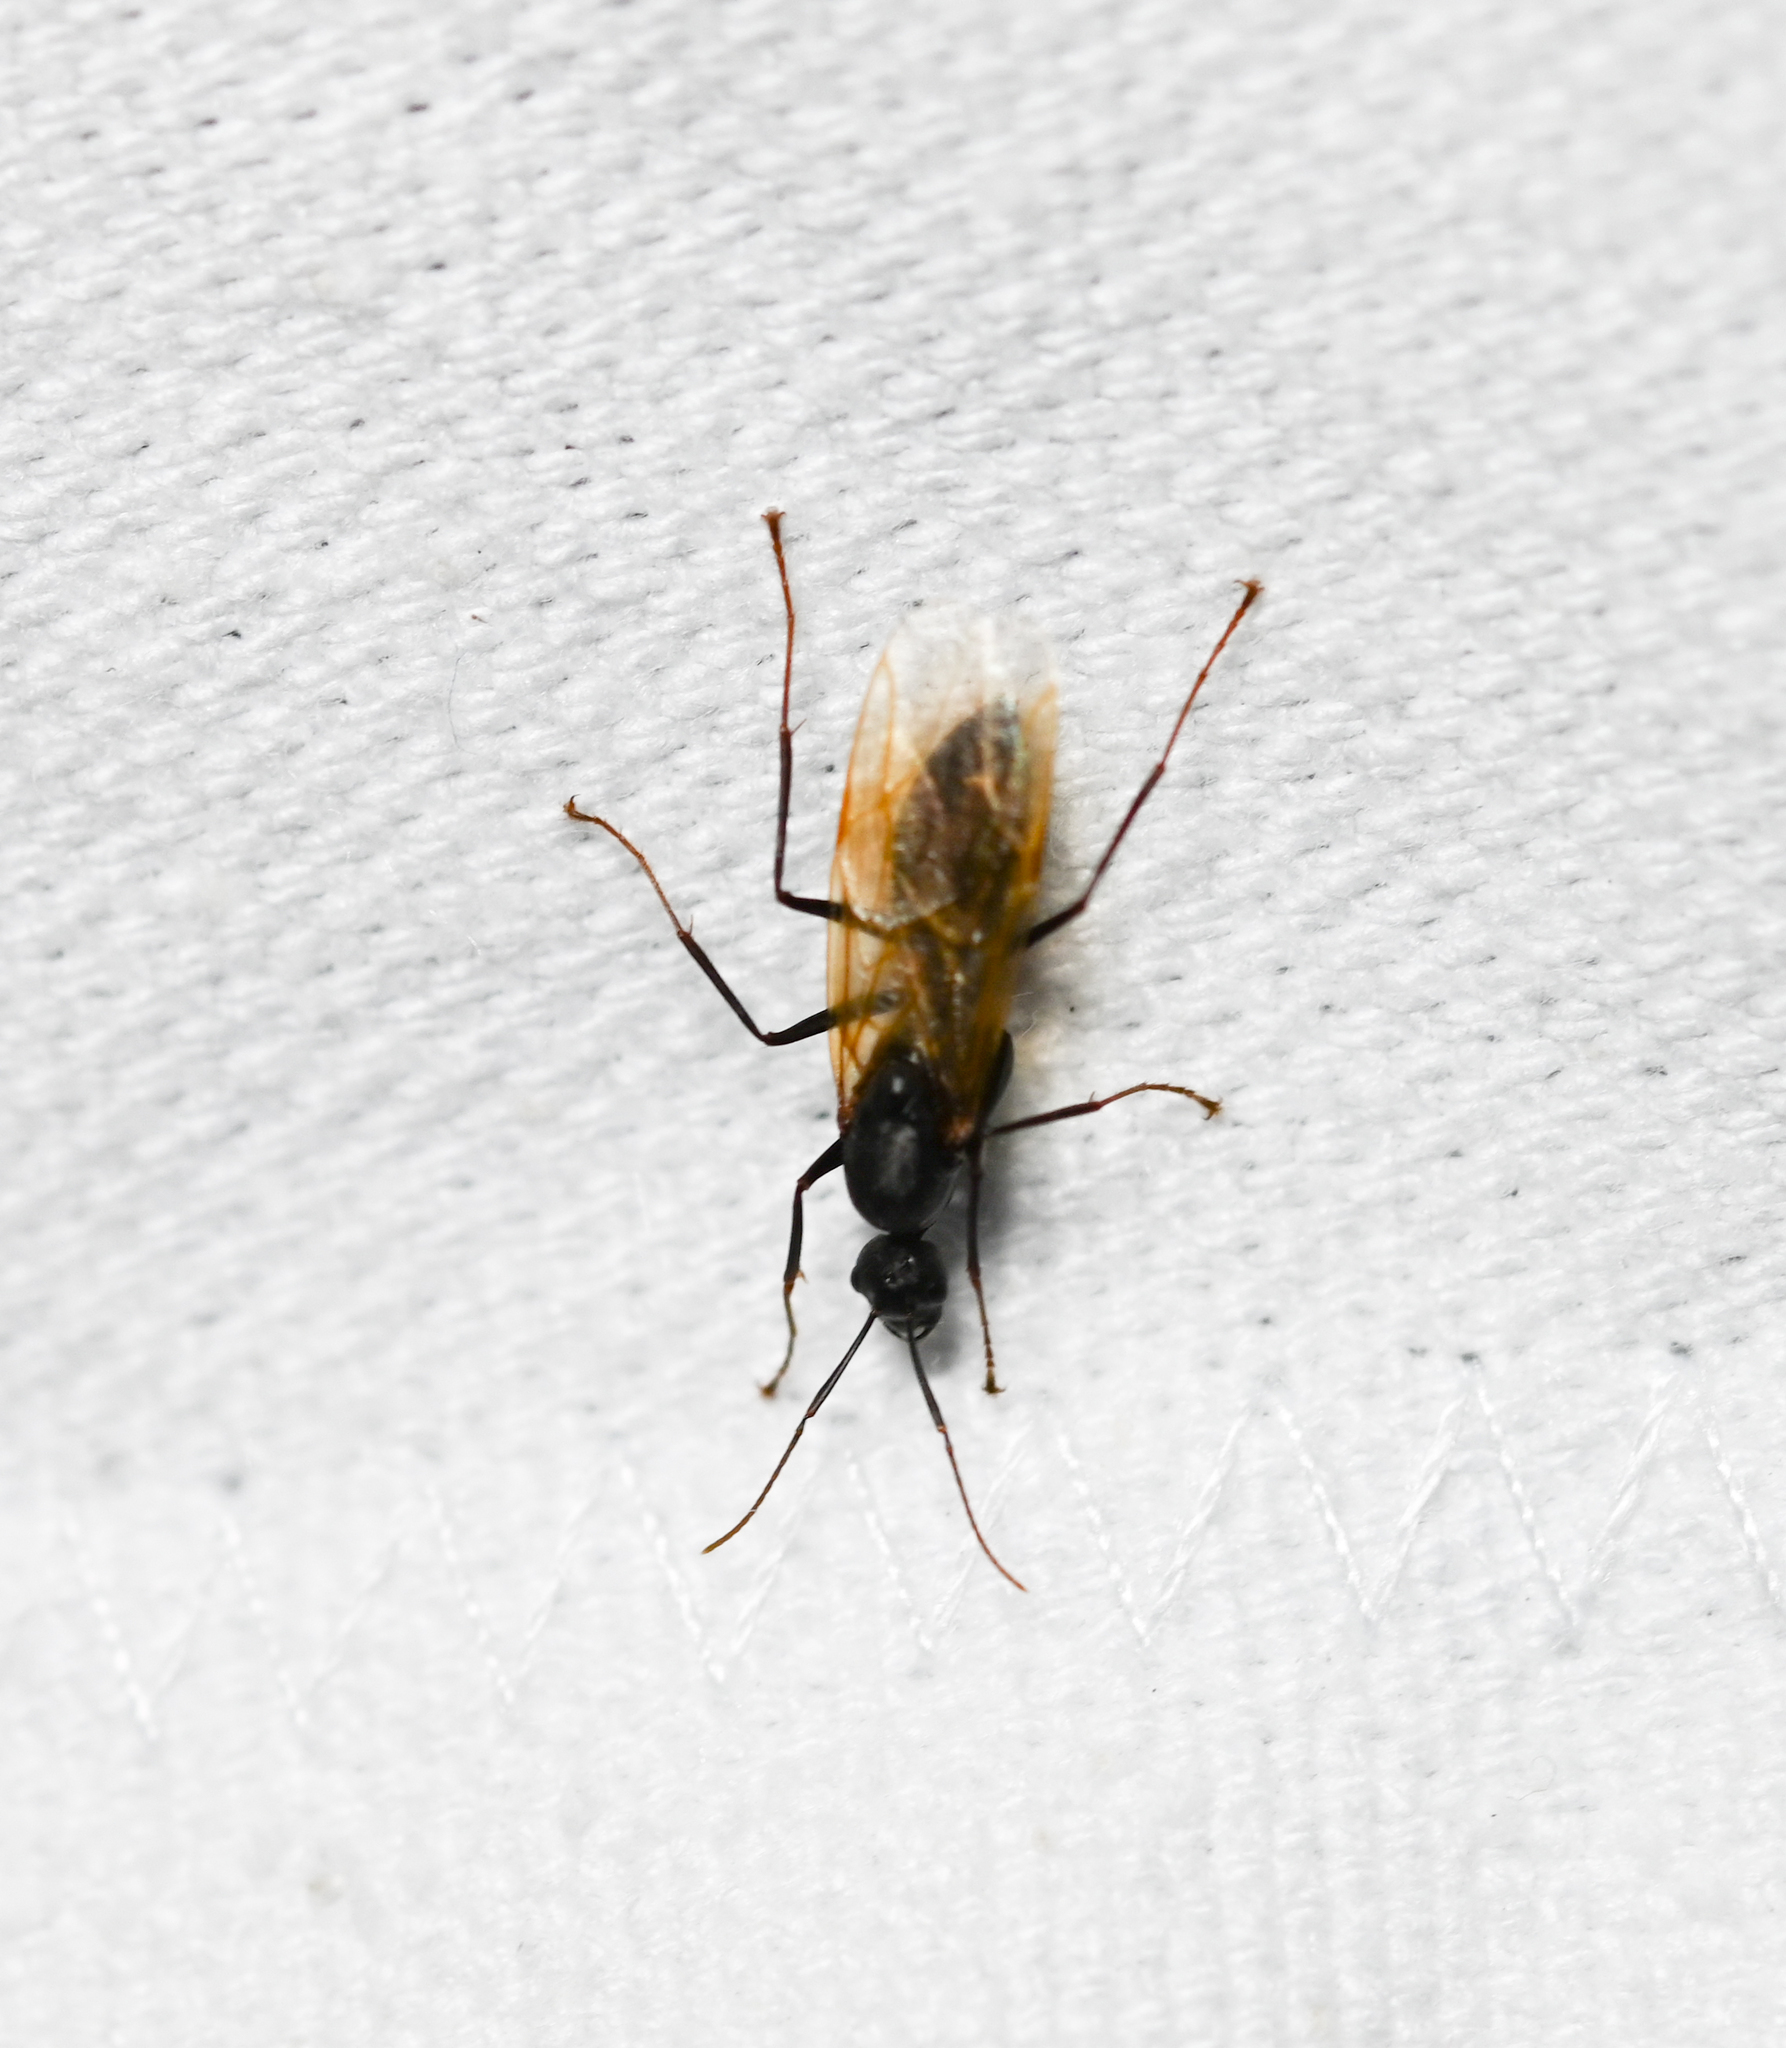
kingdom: Animalia
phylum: Arthropoda
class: Insecta
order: Hymenoptera
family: Formicidae
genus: Camponotus
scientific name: Camponotus pennsylvanicus
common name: Black carpenter ant
